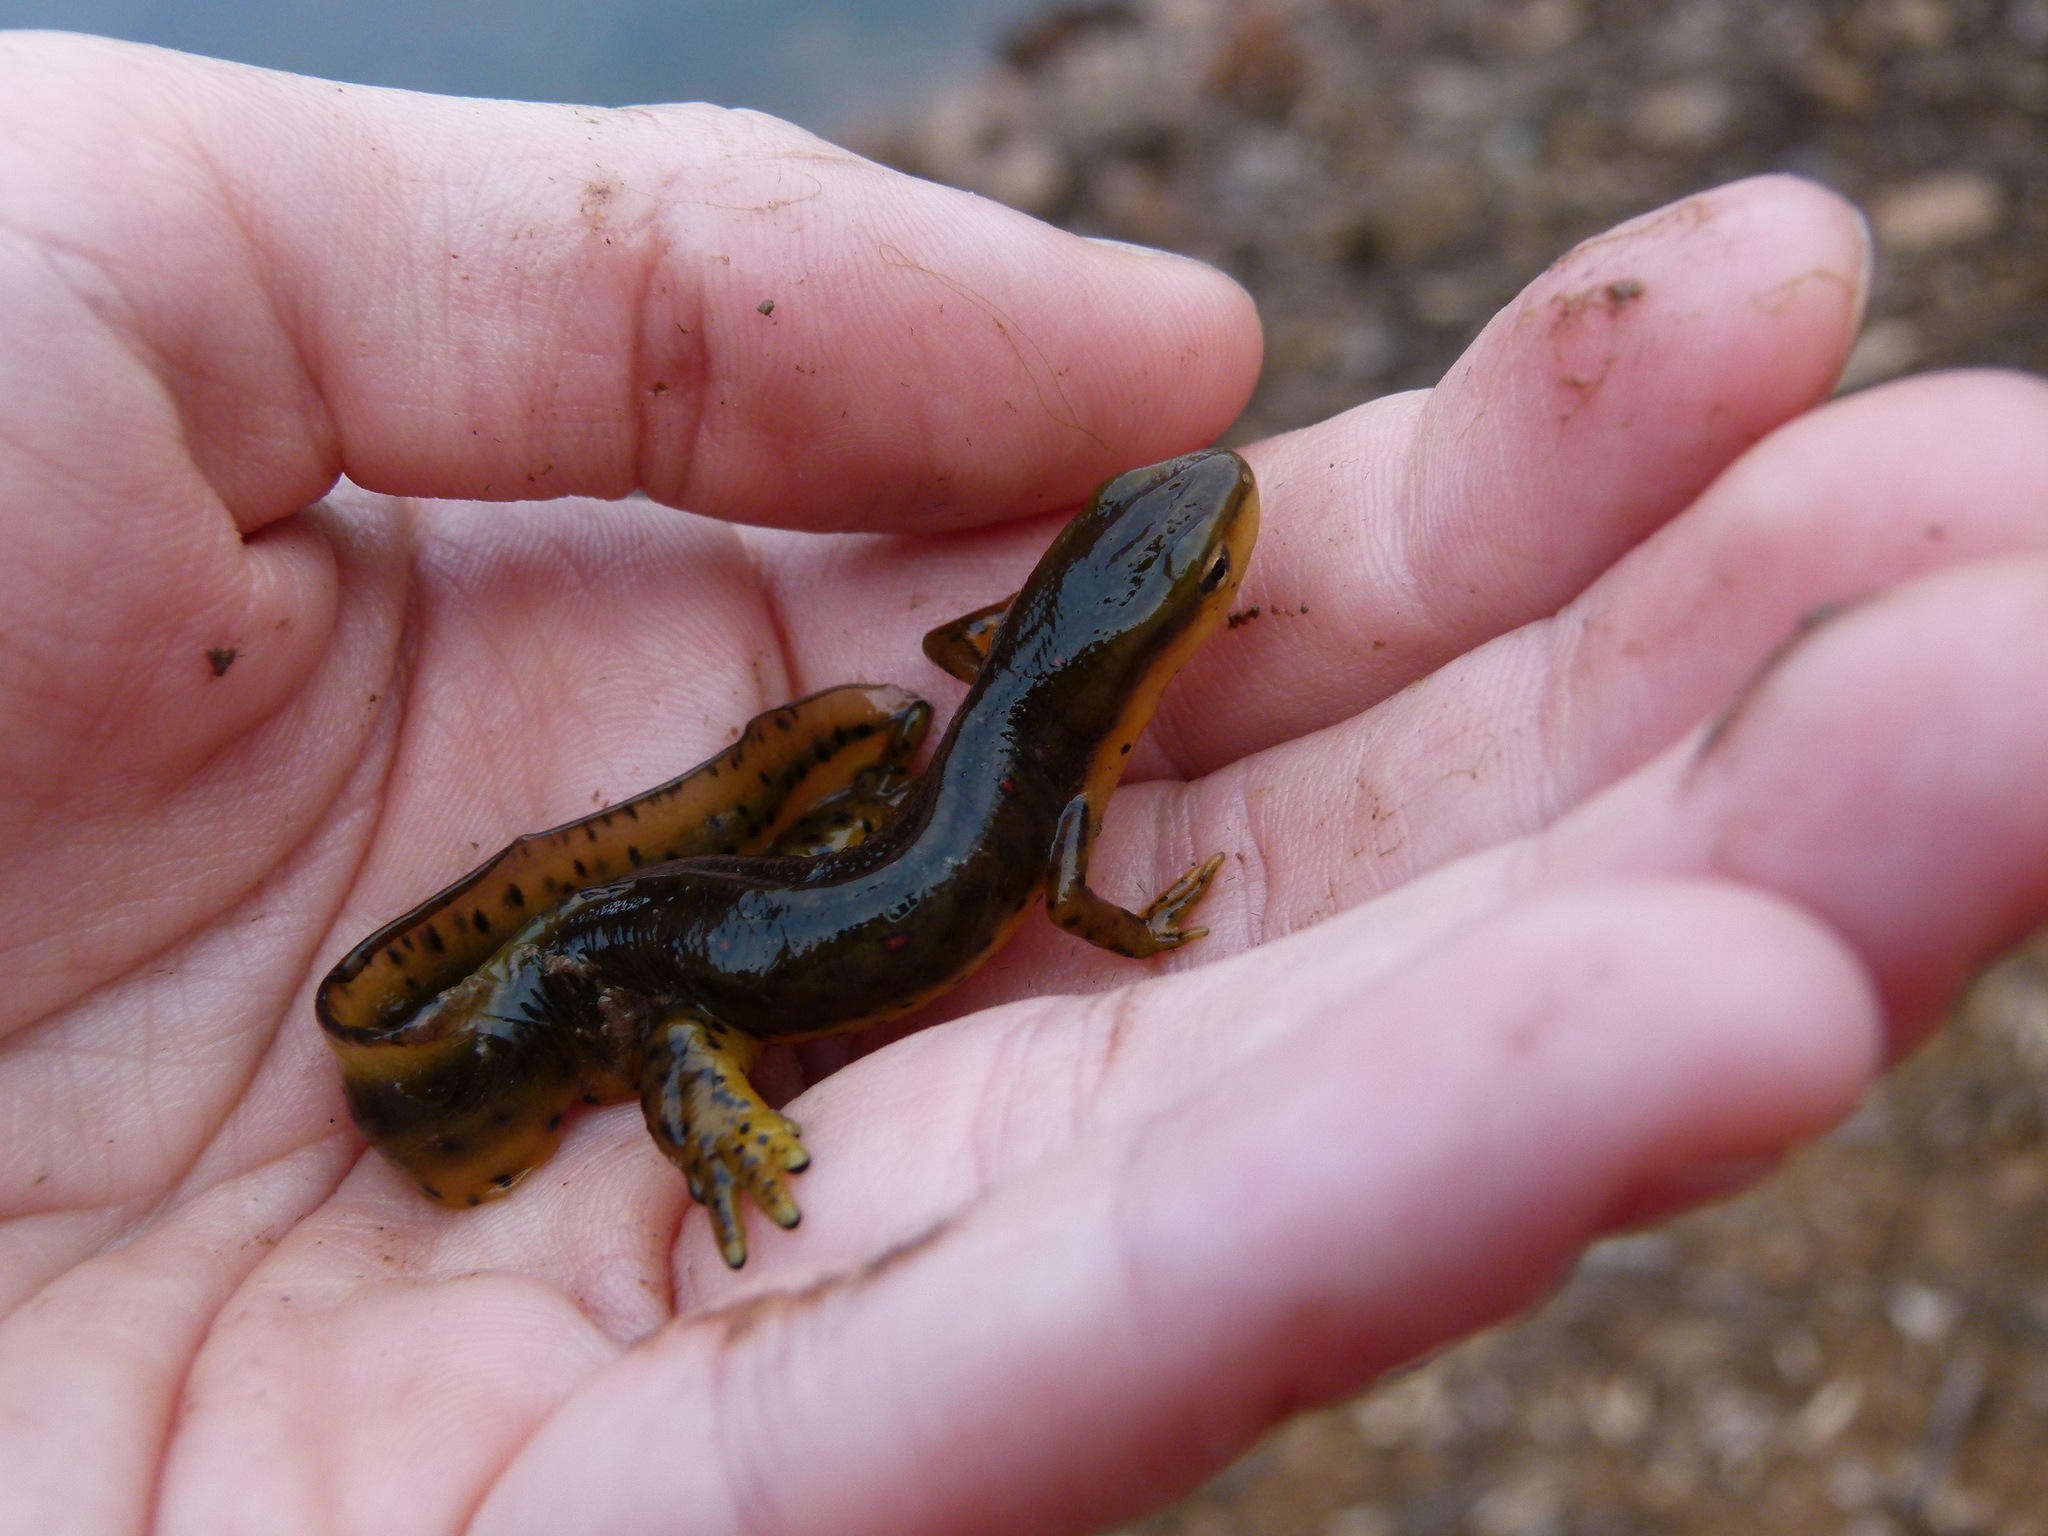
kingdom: Animalia
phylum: Chordata
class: Amphibia
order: Caudata
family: Salamandridae
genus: Notophthalmus
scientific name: Notophthalmus viridescens
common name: Eastern newt
